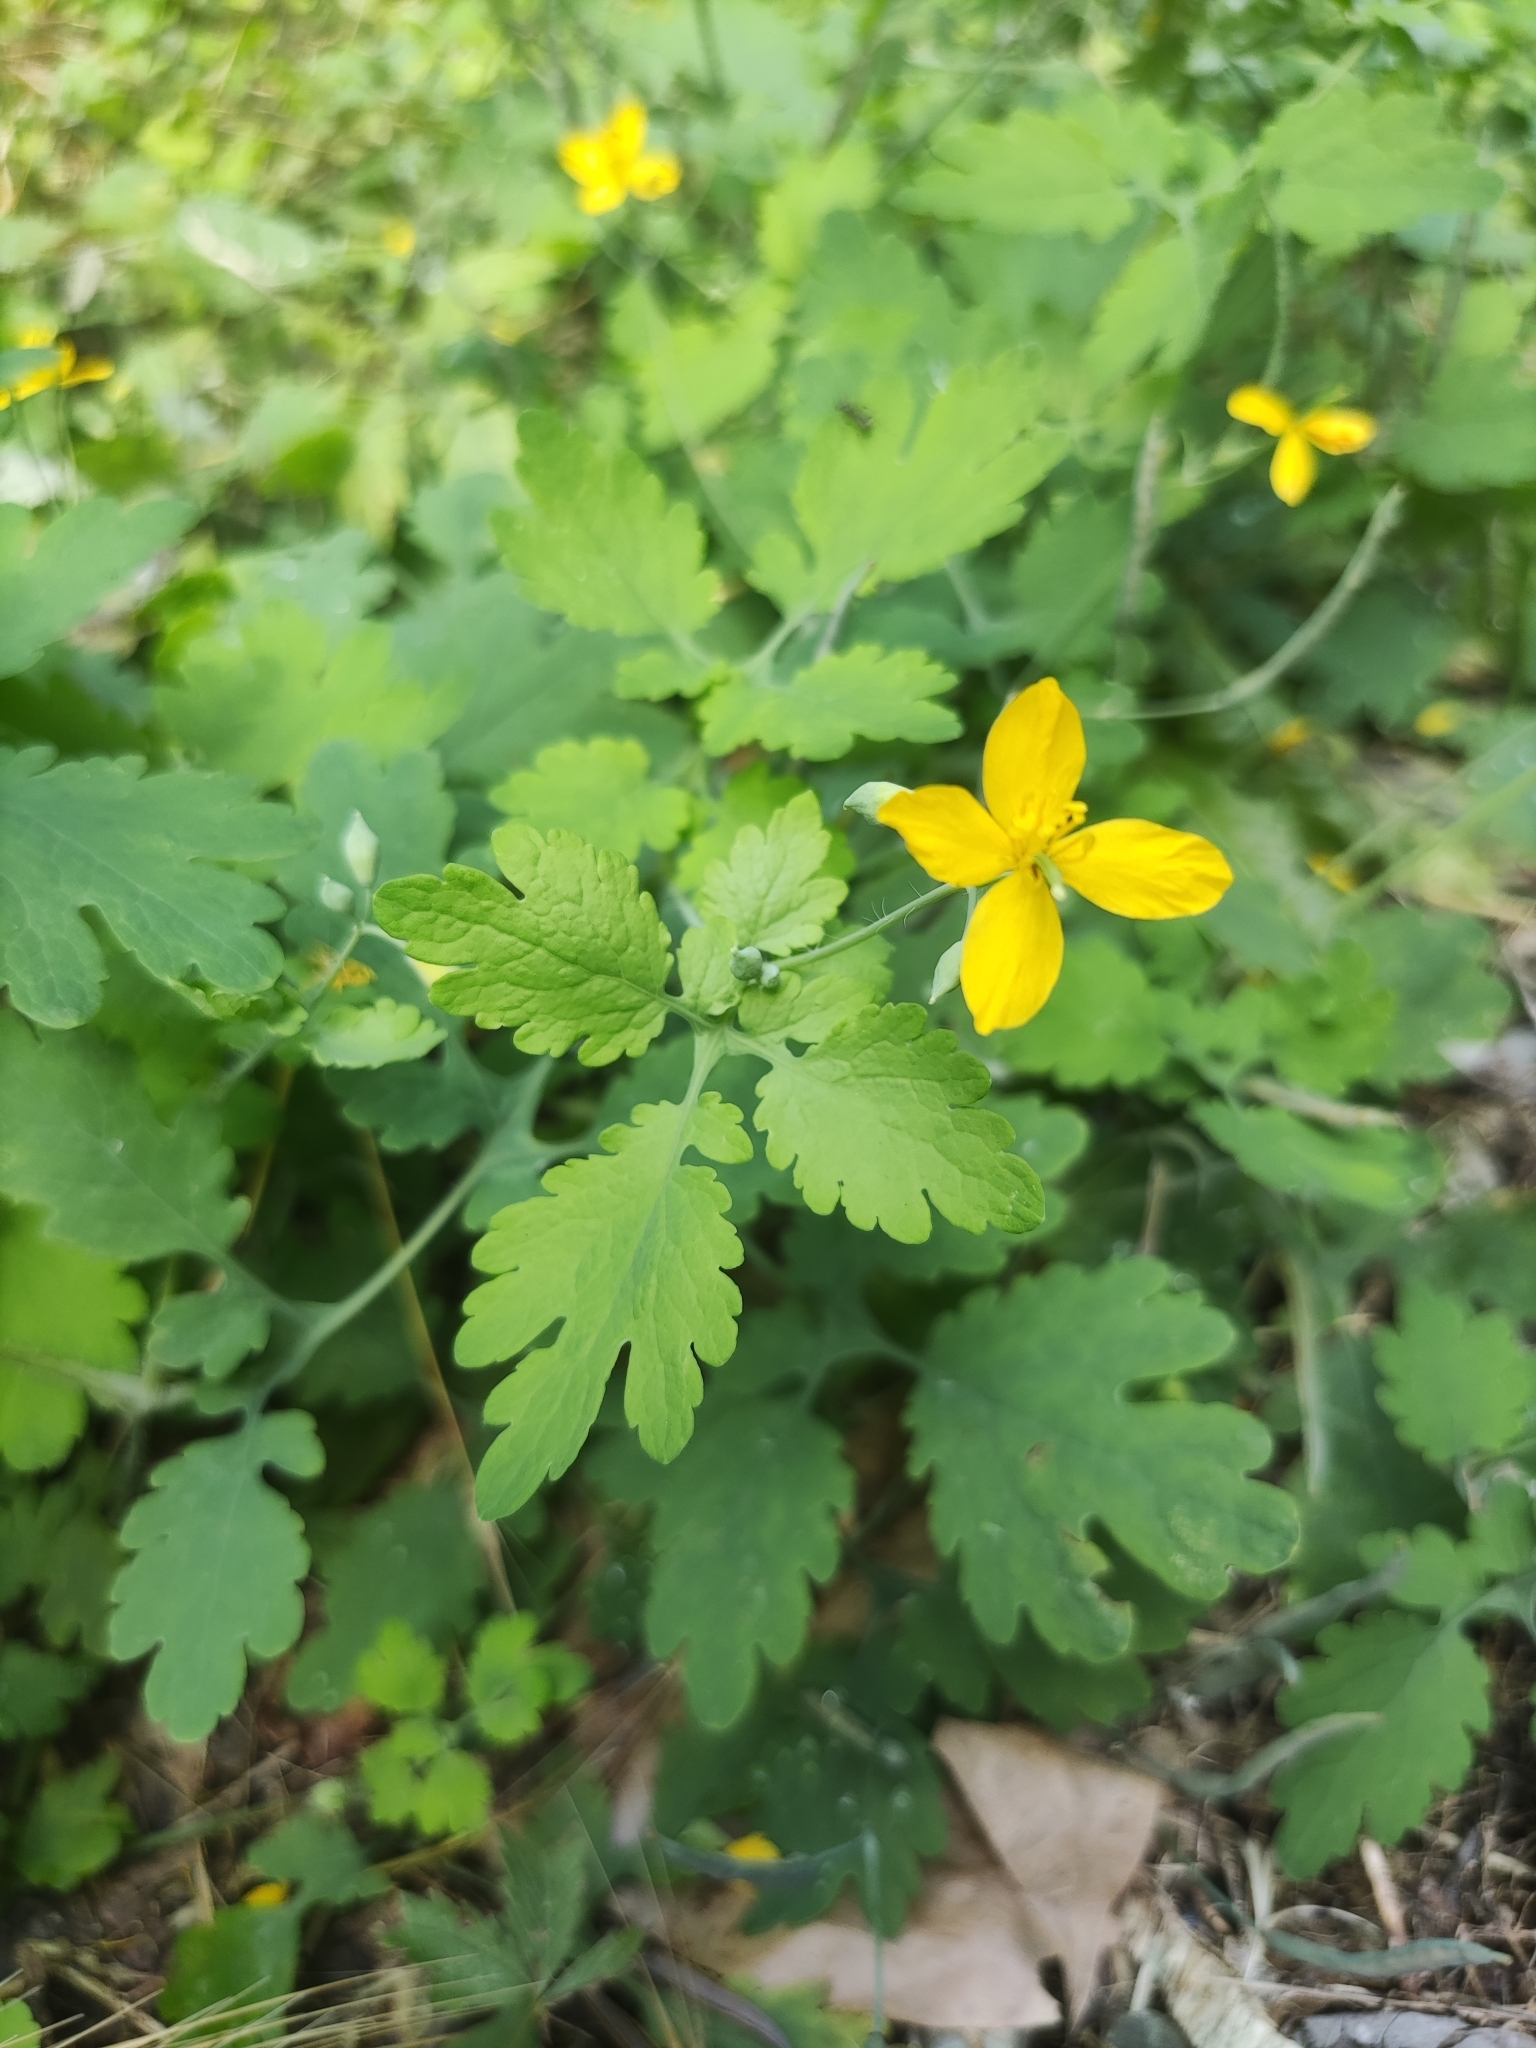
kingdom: Plantae
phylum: Tracheophyta
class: Magnoliopsida
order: Ranunculales
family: Papaveraceae
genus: Chelidonium
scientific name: Chelidonium majus
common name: Greater celandine
